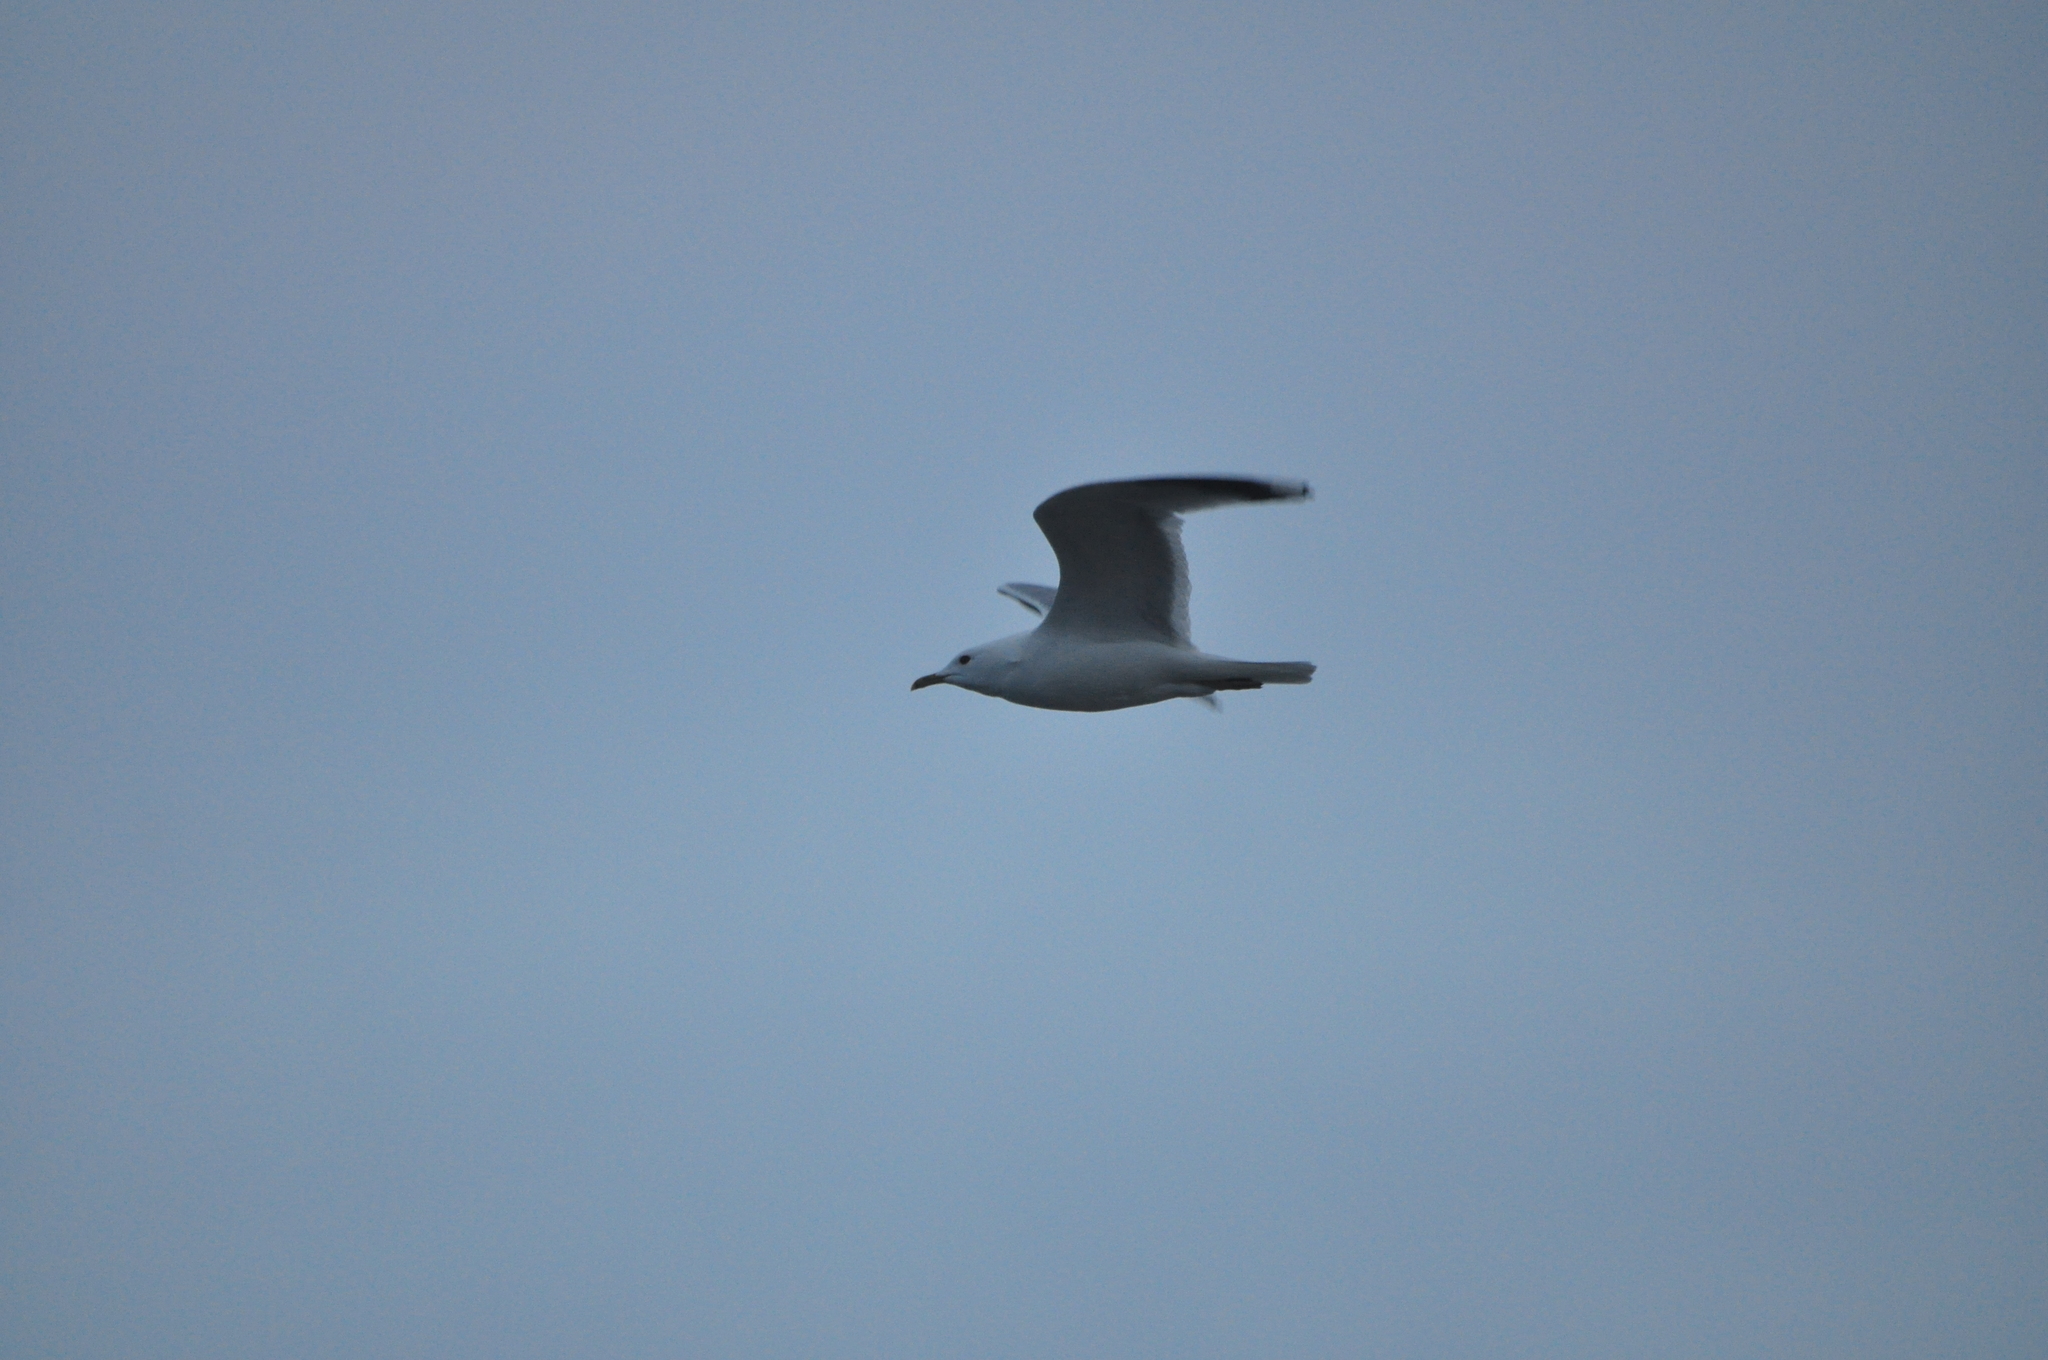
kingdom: Animalia
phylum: Chordata
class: Aves
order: Charadriiformes
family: Laridae
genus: Larus
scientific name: Larus canus
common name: Mew gull
